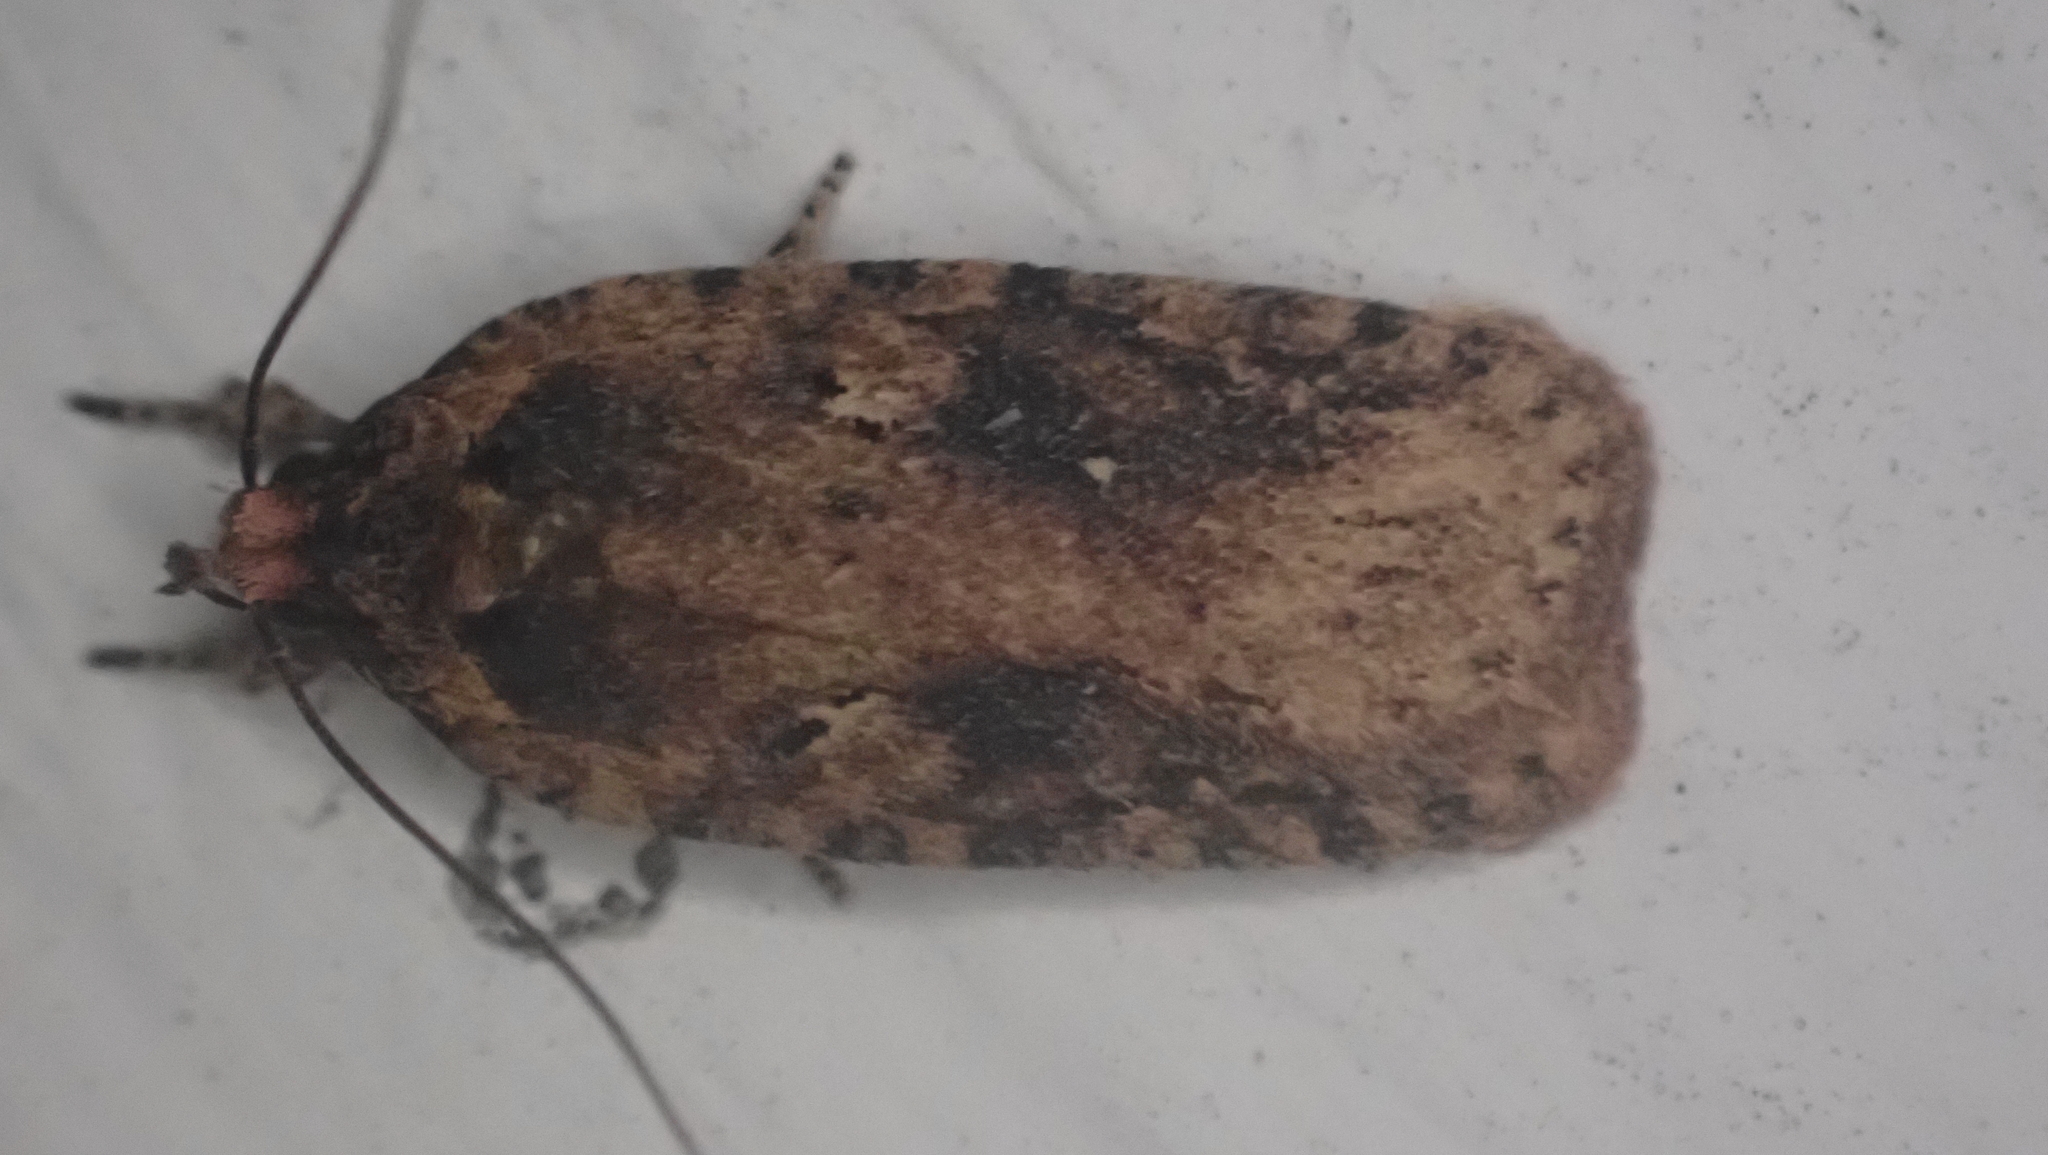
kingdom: Animalia
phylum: Arthropoda
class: Insecta
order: Lepidoptera
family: Depressariidae
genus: Agonopterix
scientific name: Agonopterix pulvipennella
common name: Goldenrod leafffolder
